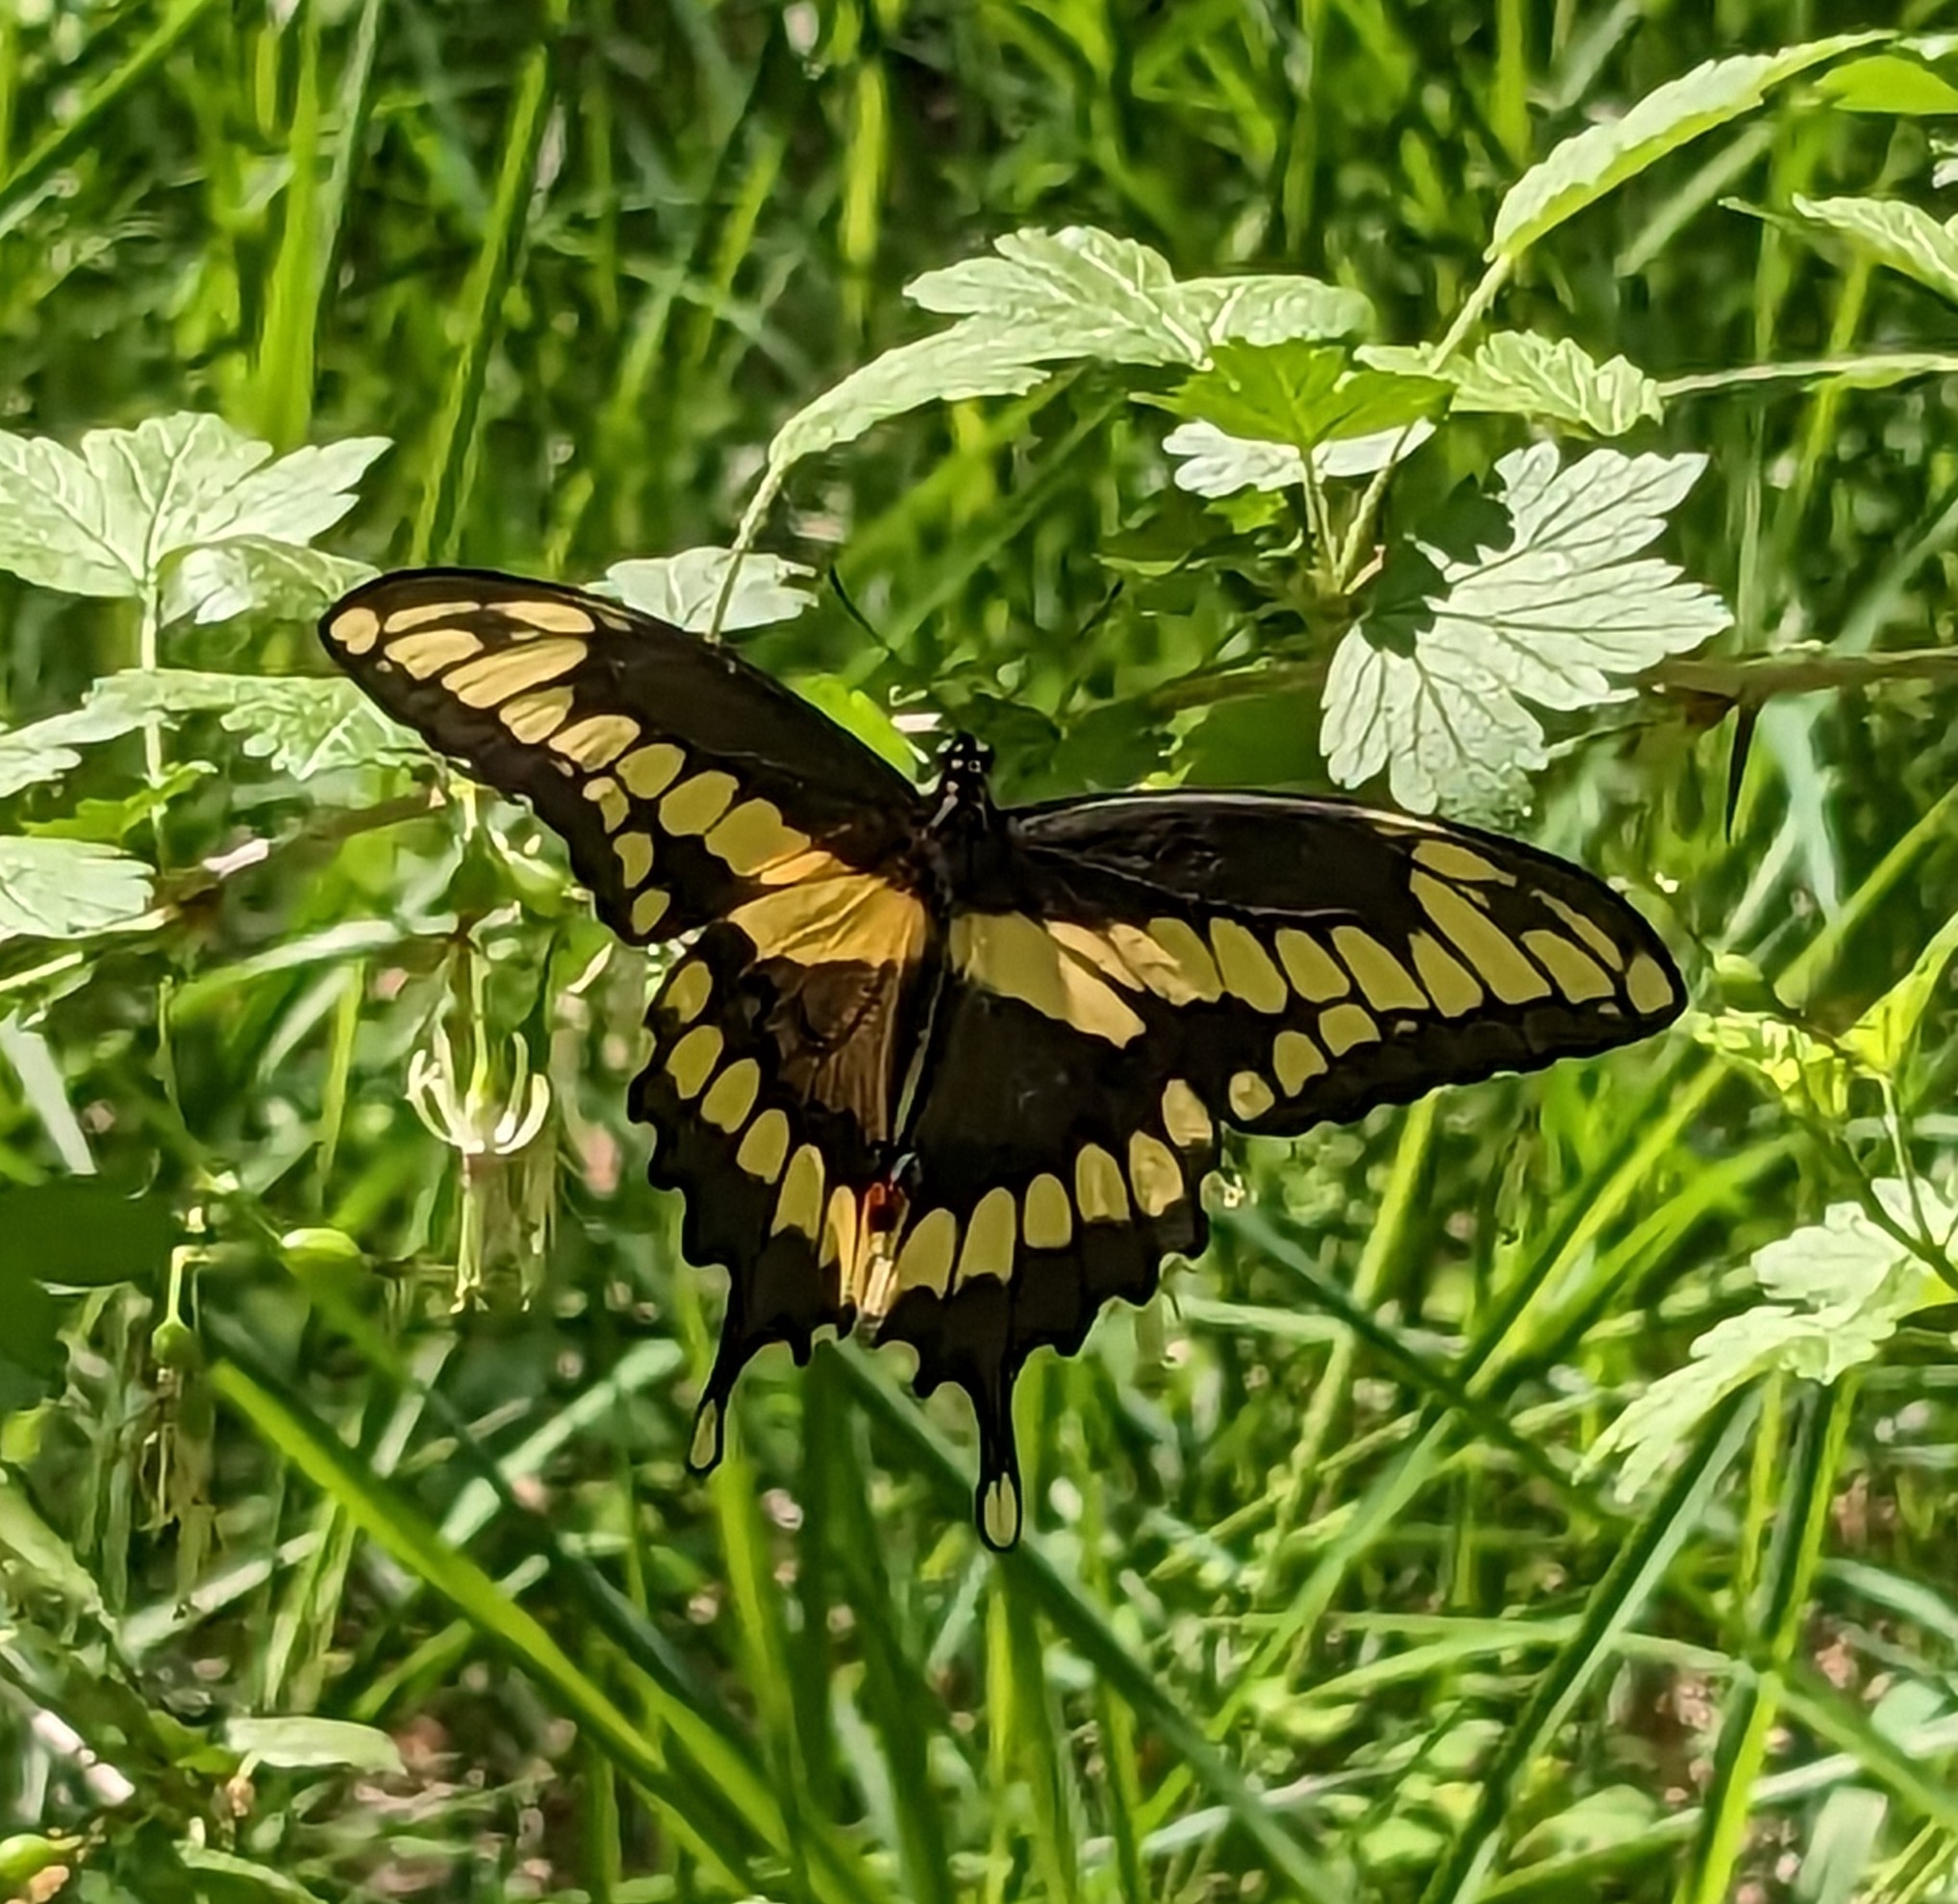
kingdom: Animalia
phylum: Arthropoda
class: Insecta
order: Lepidoptera
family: Papilionidae
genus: Papilio
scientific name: Papilio cresphontes
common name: Giant swallowtail
